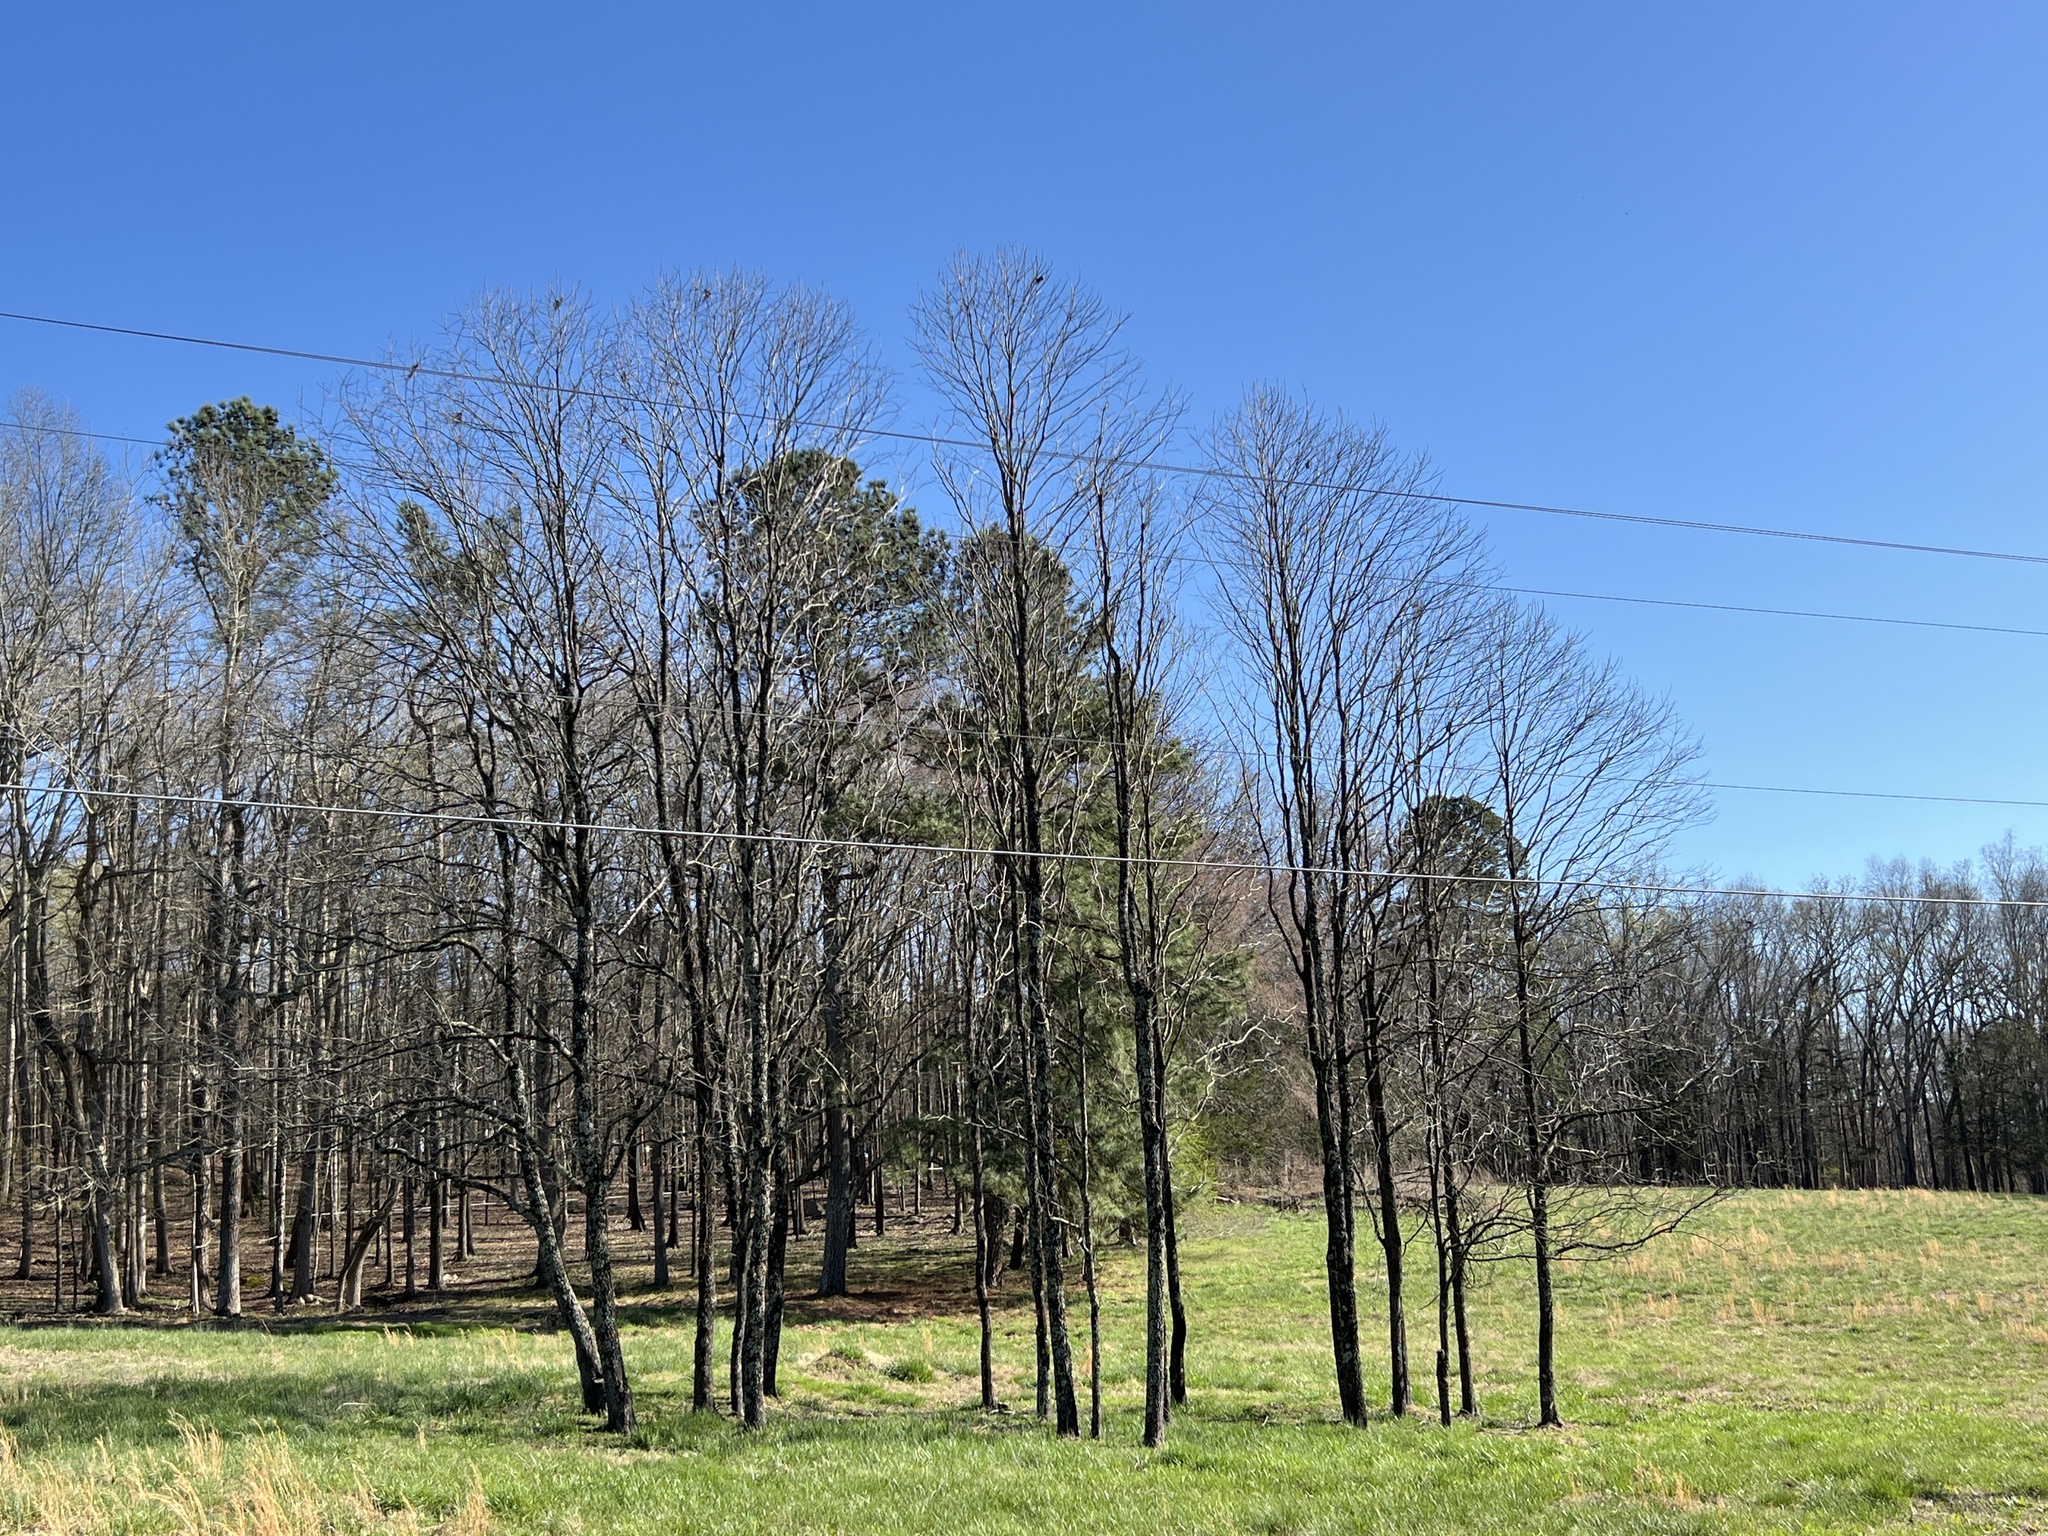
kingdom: Plantae
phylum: Tracheophyta
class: Magnoliopsida
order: Ericales
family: Ebenaceae
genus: Diospyros
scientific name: Diospyros virginiana
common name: Persimmon
